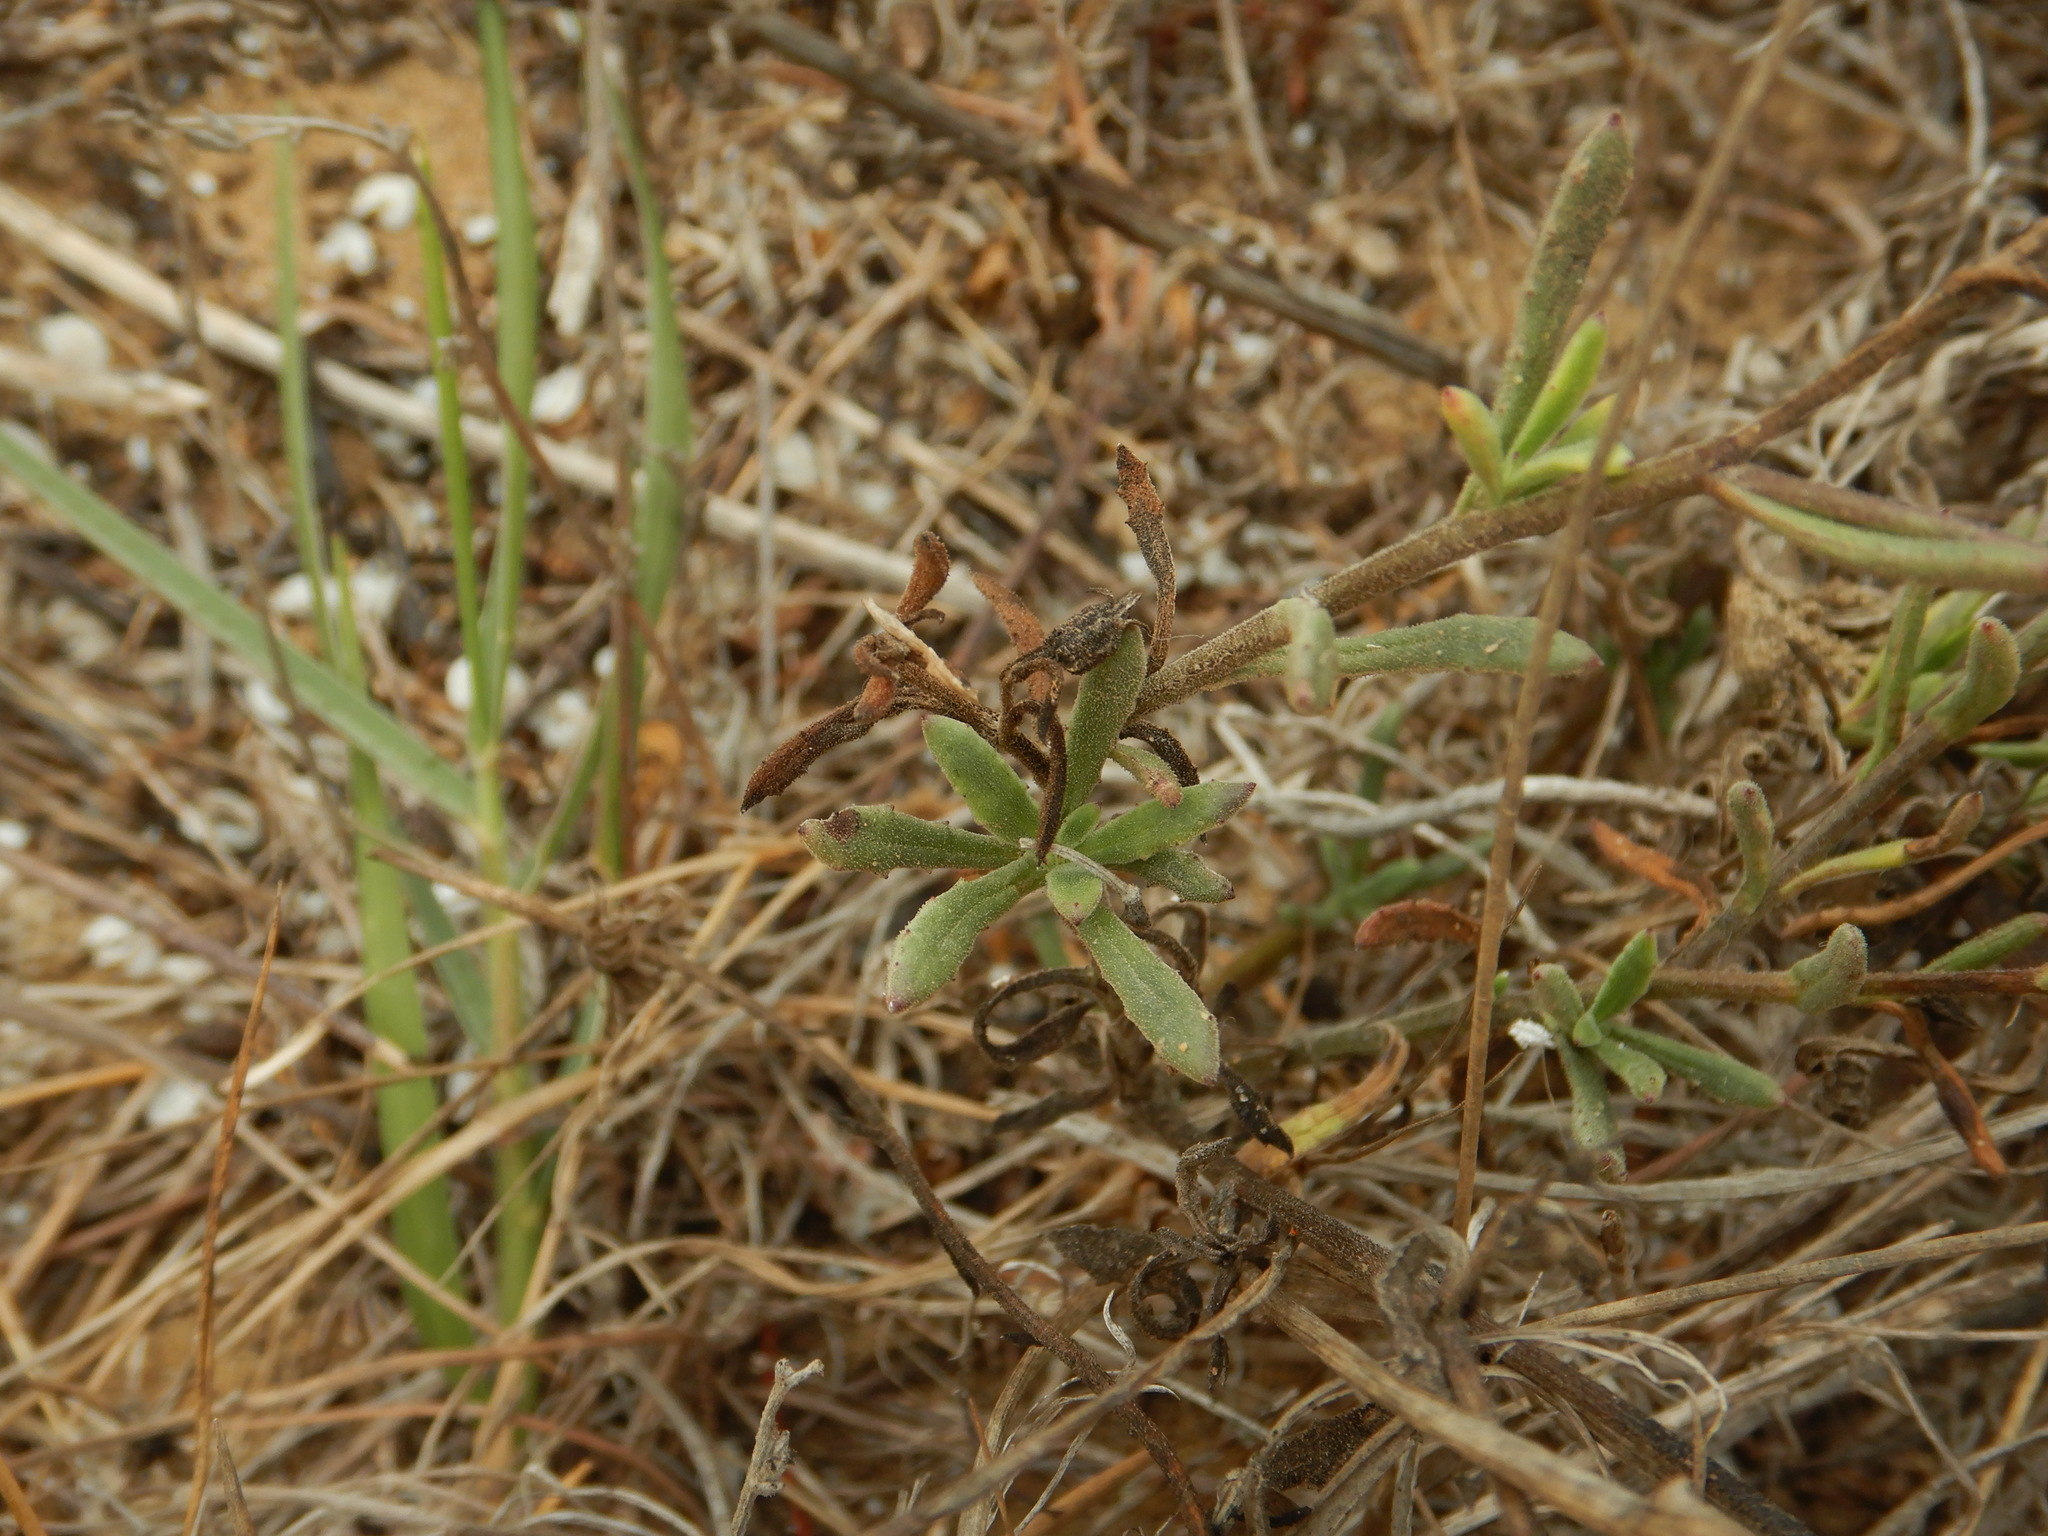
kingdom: Plantae
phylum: Tracheophyta
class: Magnoliopsida
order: Asterales
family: Asteraceae
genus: Calendula
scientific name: Calendula suffruticosa
